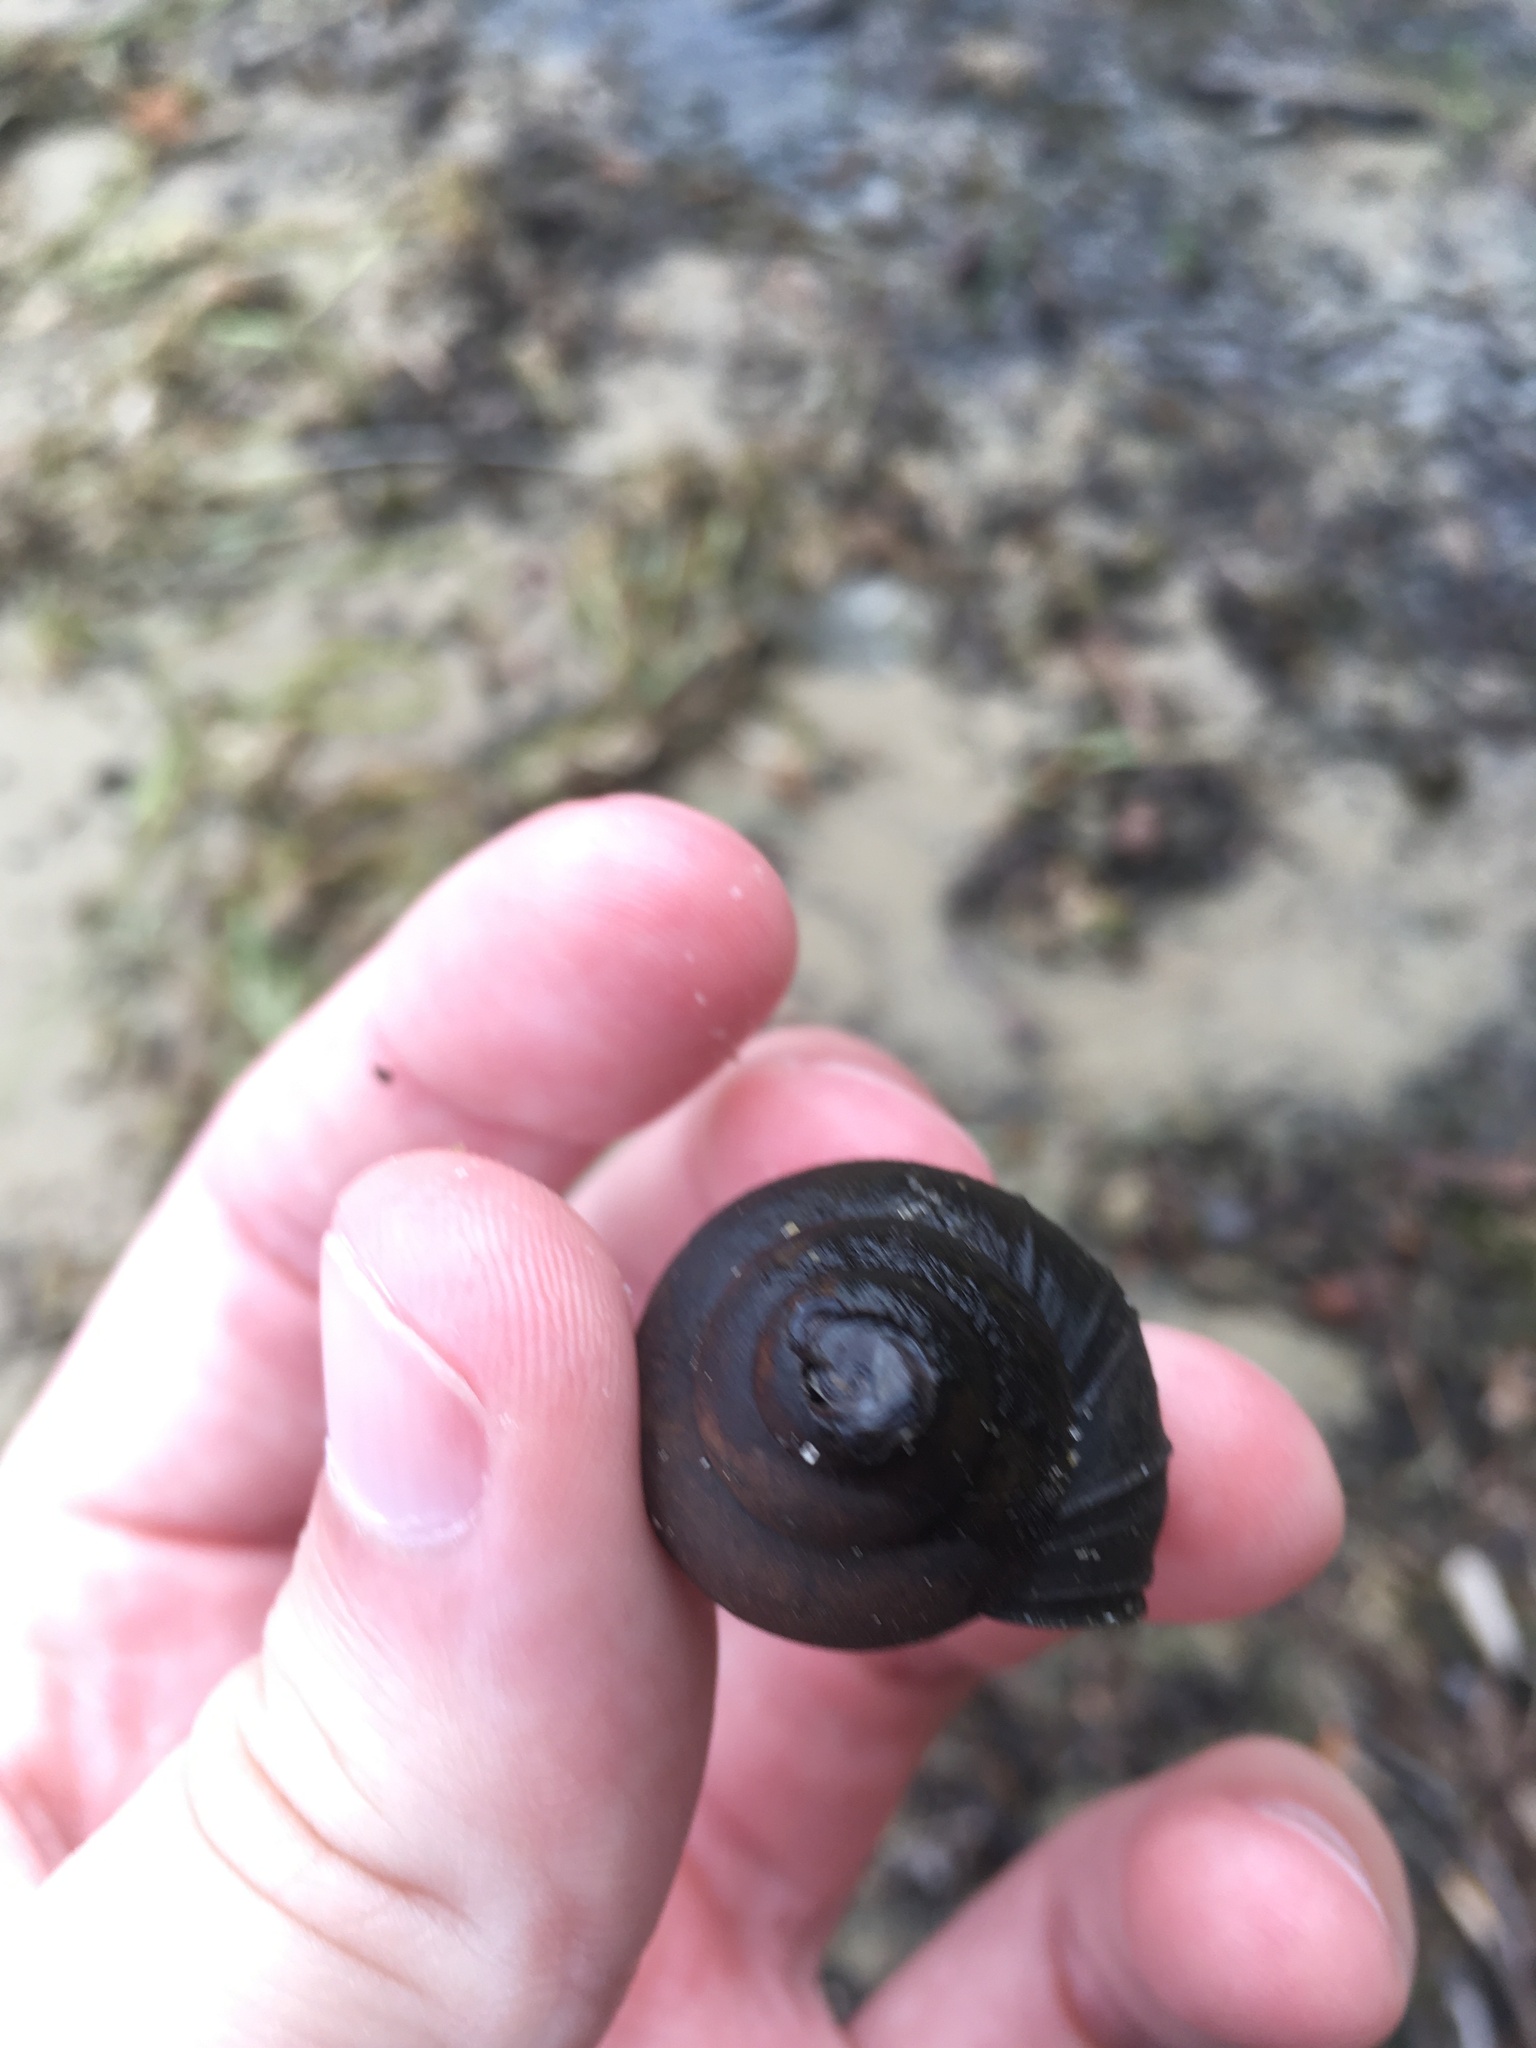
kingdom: Animalia
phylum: Mollusca
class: Gastropoda
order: Architaenioglossa
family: Viviparidae
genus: Callinina
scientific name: Callinina georgiana
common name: Banded mystery snail
